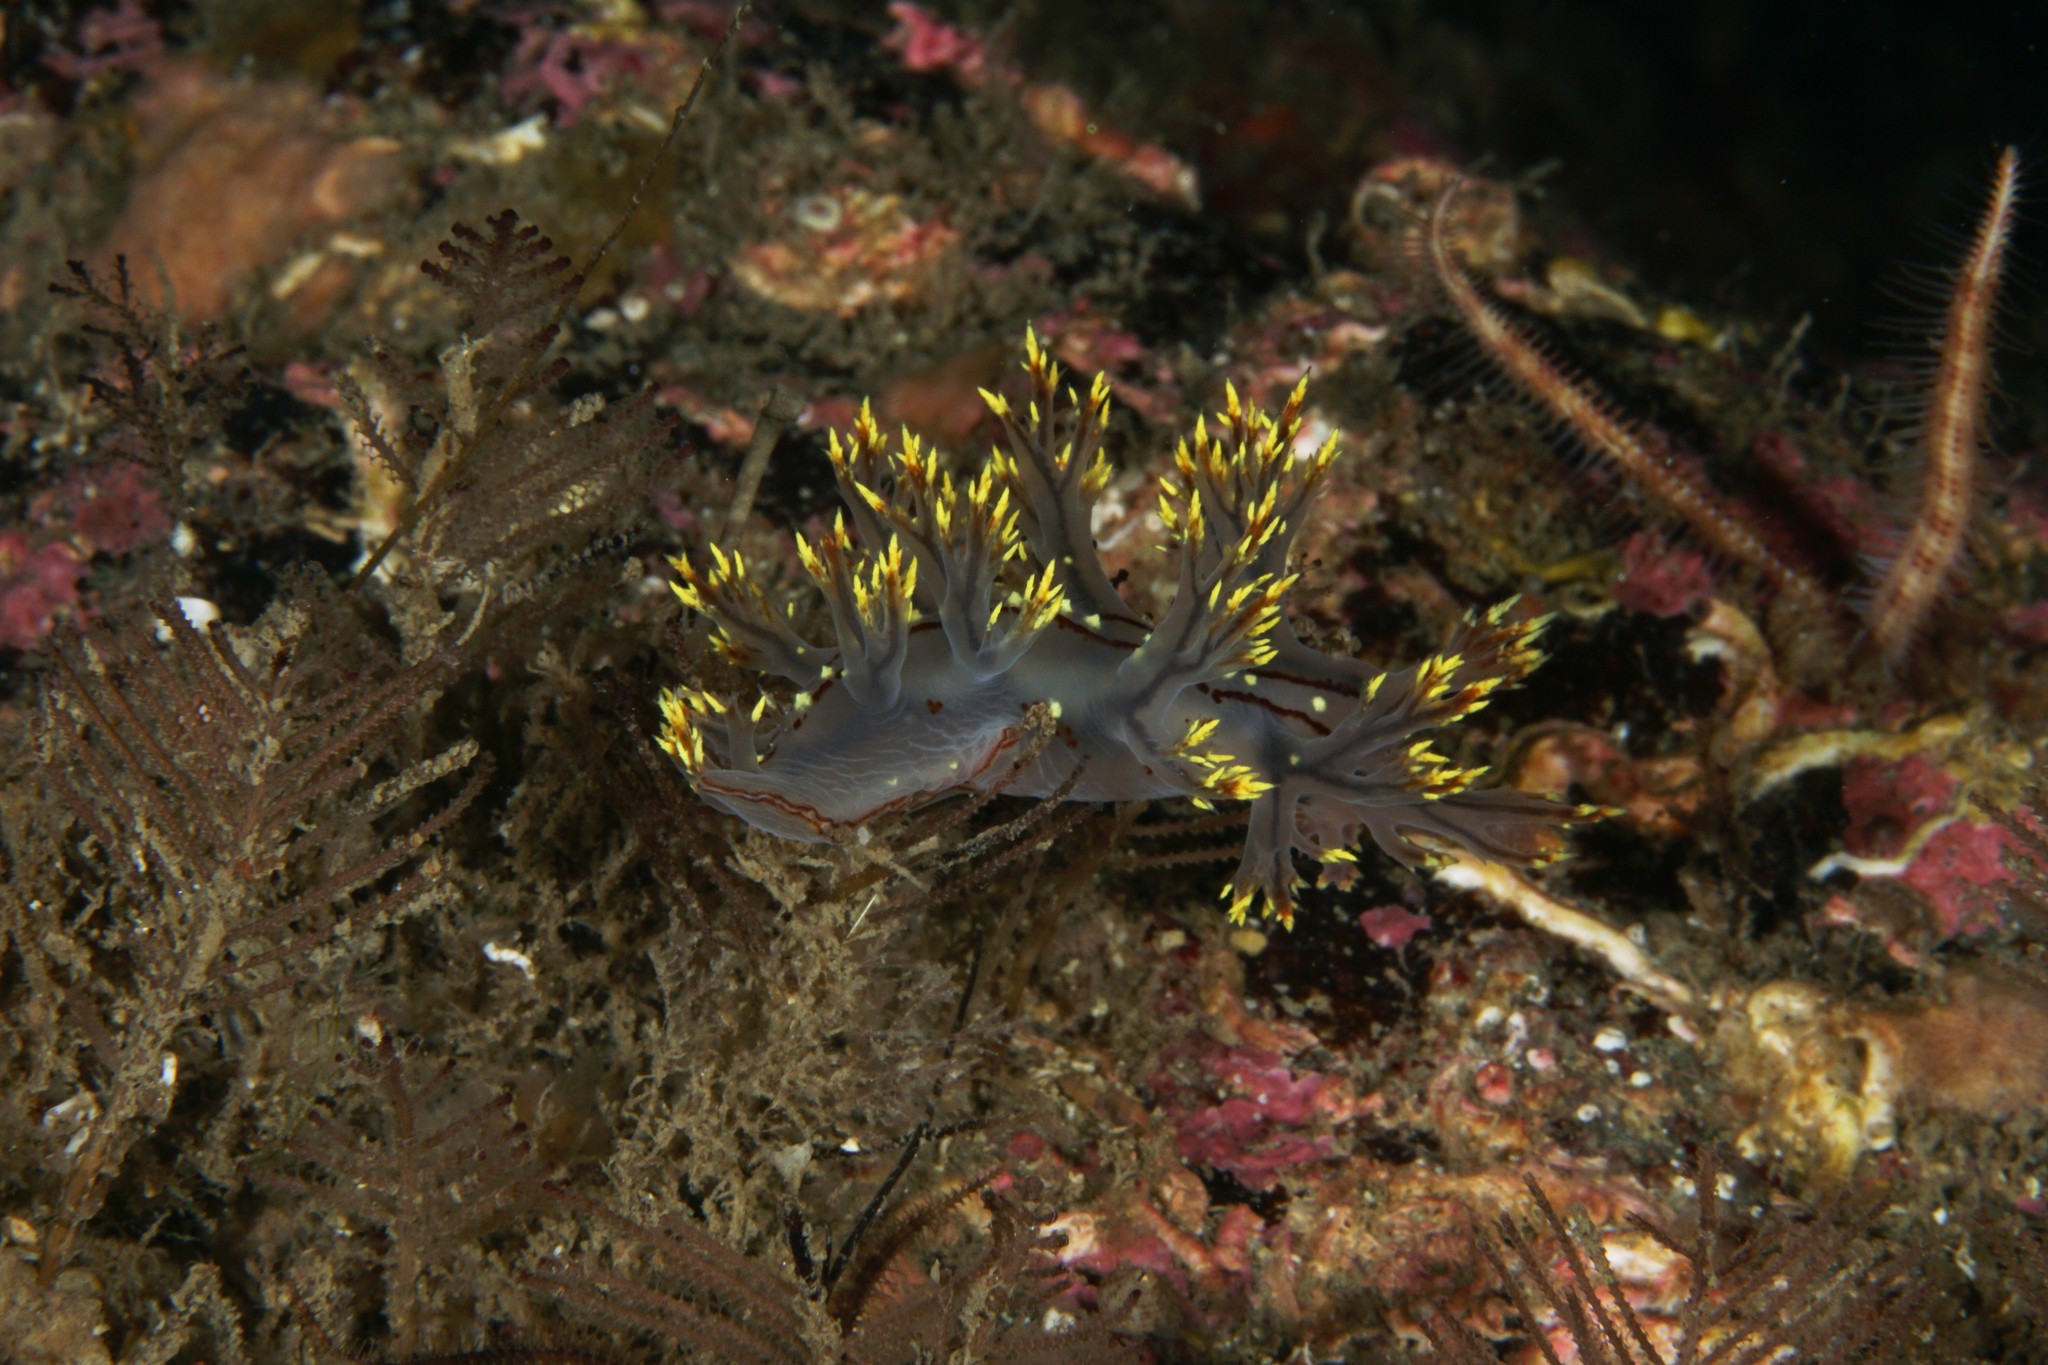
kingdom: Animalia
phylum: Mollusca
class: Gastropoda
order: Nudibranchia
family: Dendronotidae
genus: Dendronotus
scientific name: Dendronotus yrjargul
